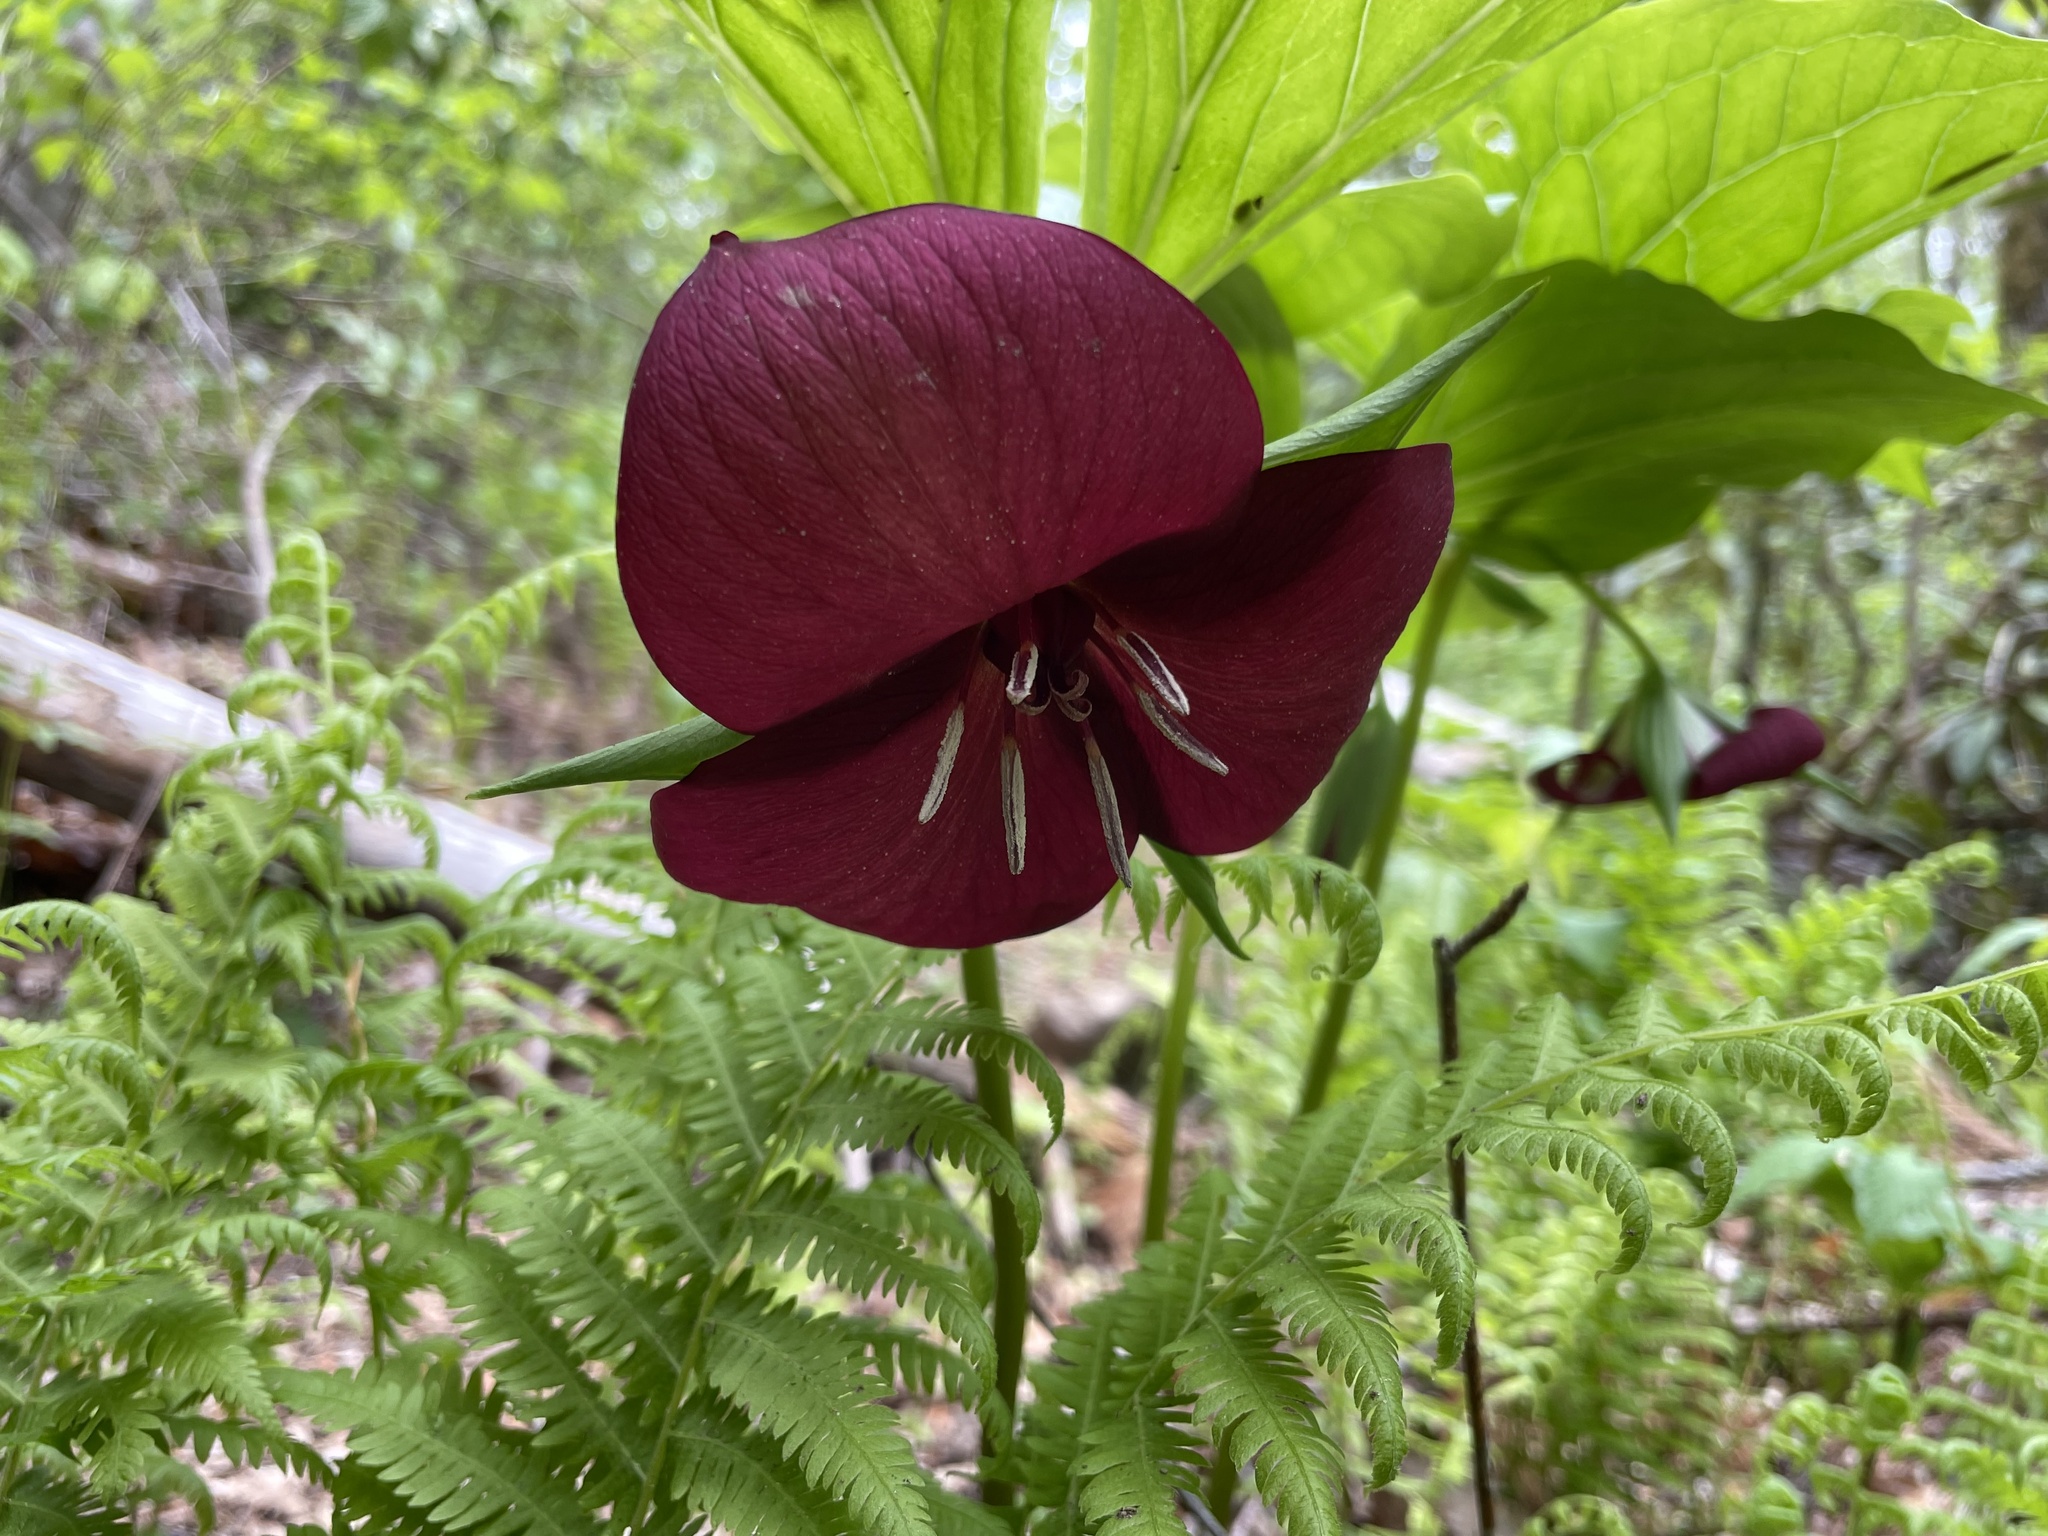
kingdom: Plantae
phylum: Tracheophyta
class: Liliopsida
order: Liliales
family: Melanthiaceae
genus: Trillium
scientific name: Trillium vaseyi
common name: Sweet trillium
